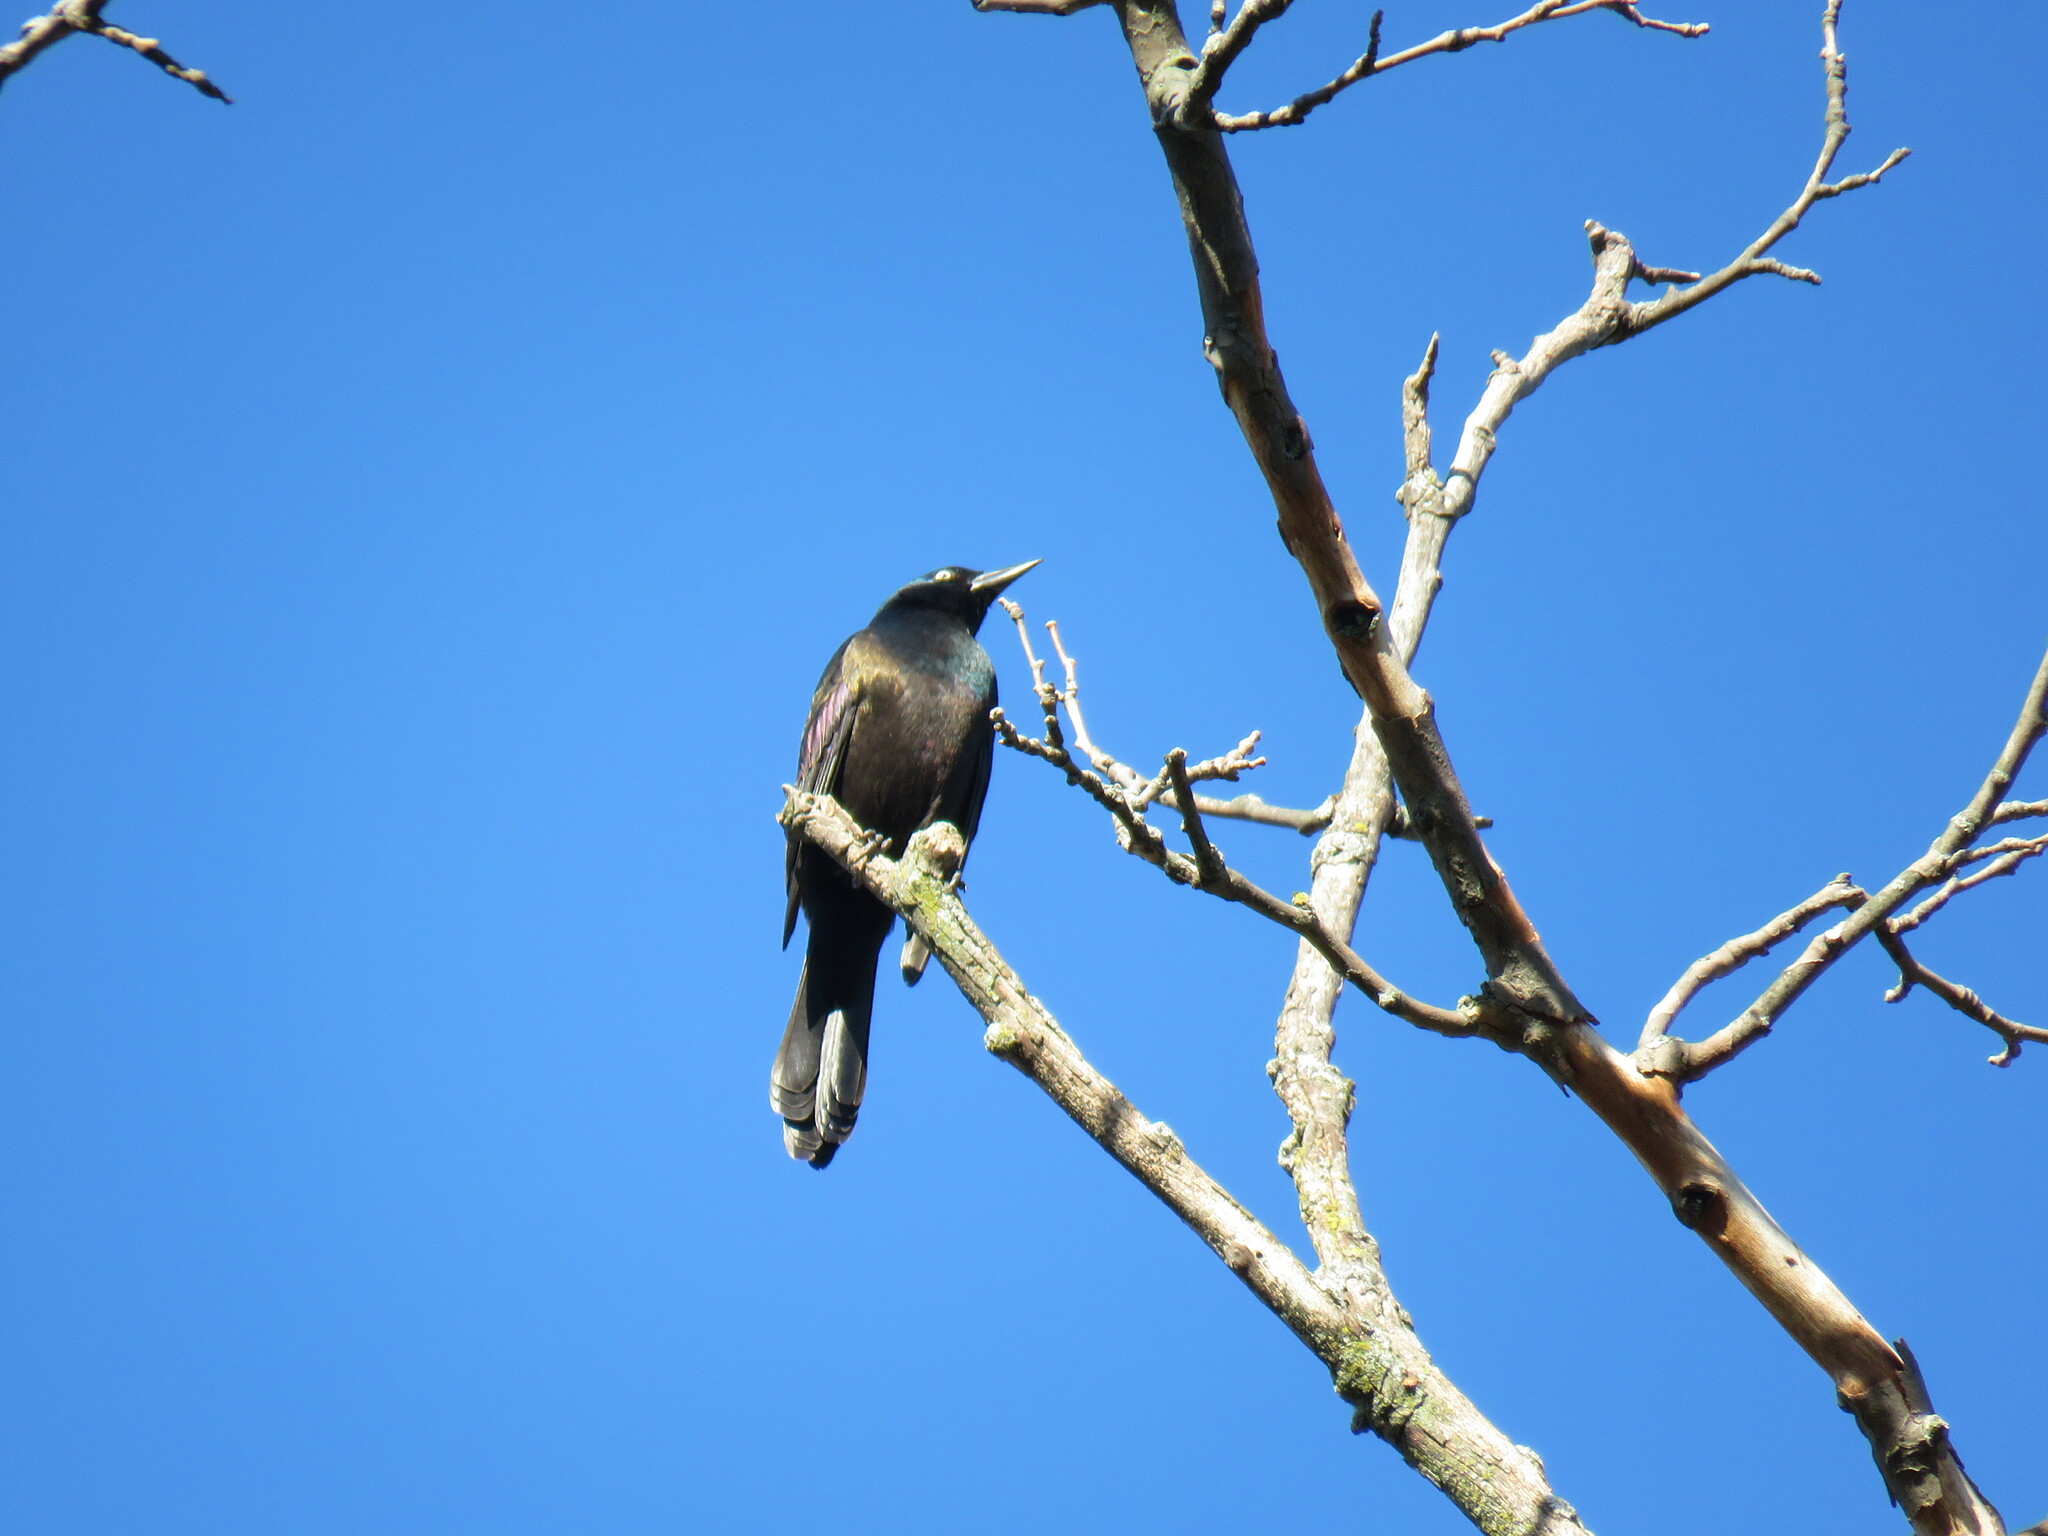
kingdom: Animalia
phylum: Chordata
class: Aves
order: Passeriformes
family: Icteridae
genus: Quiscalus
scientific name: Quiscalus quiscula
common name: Common grackle
